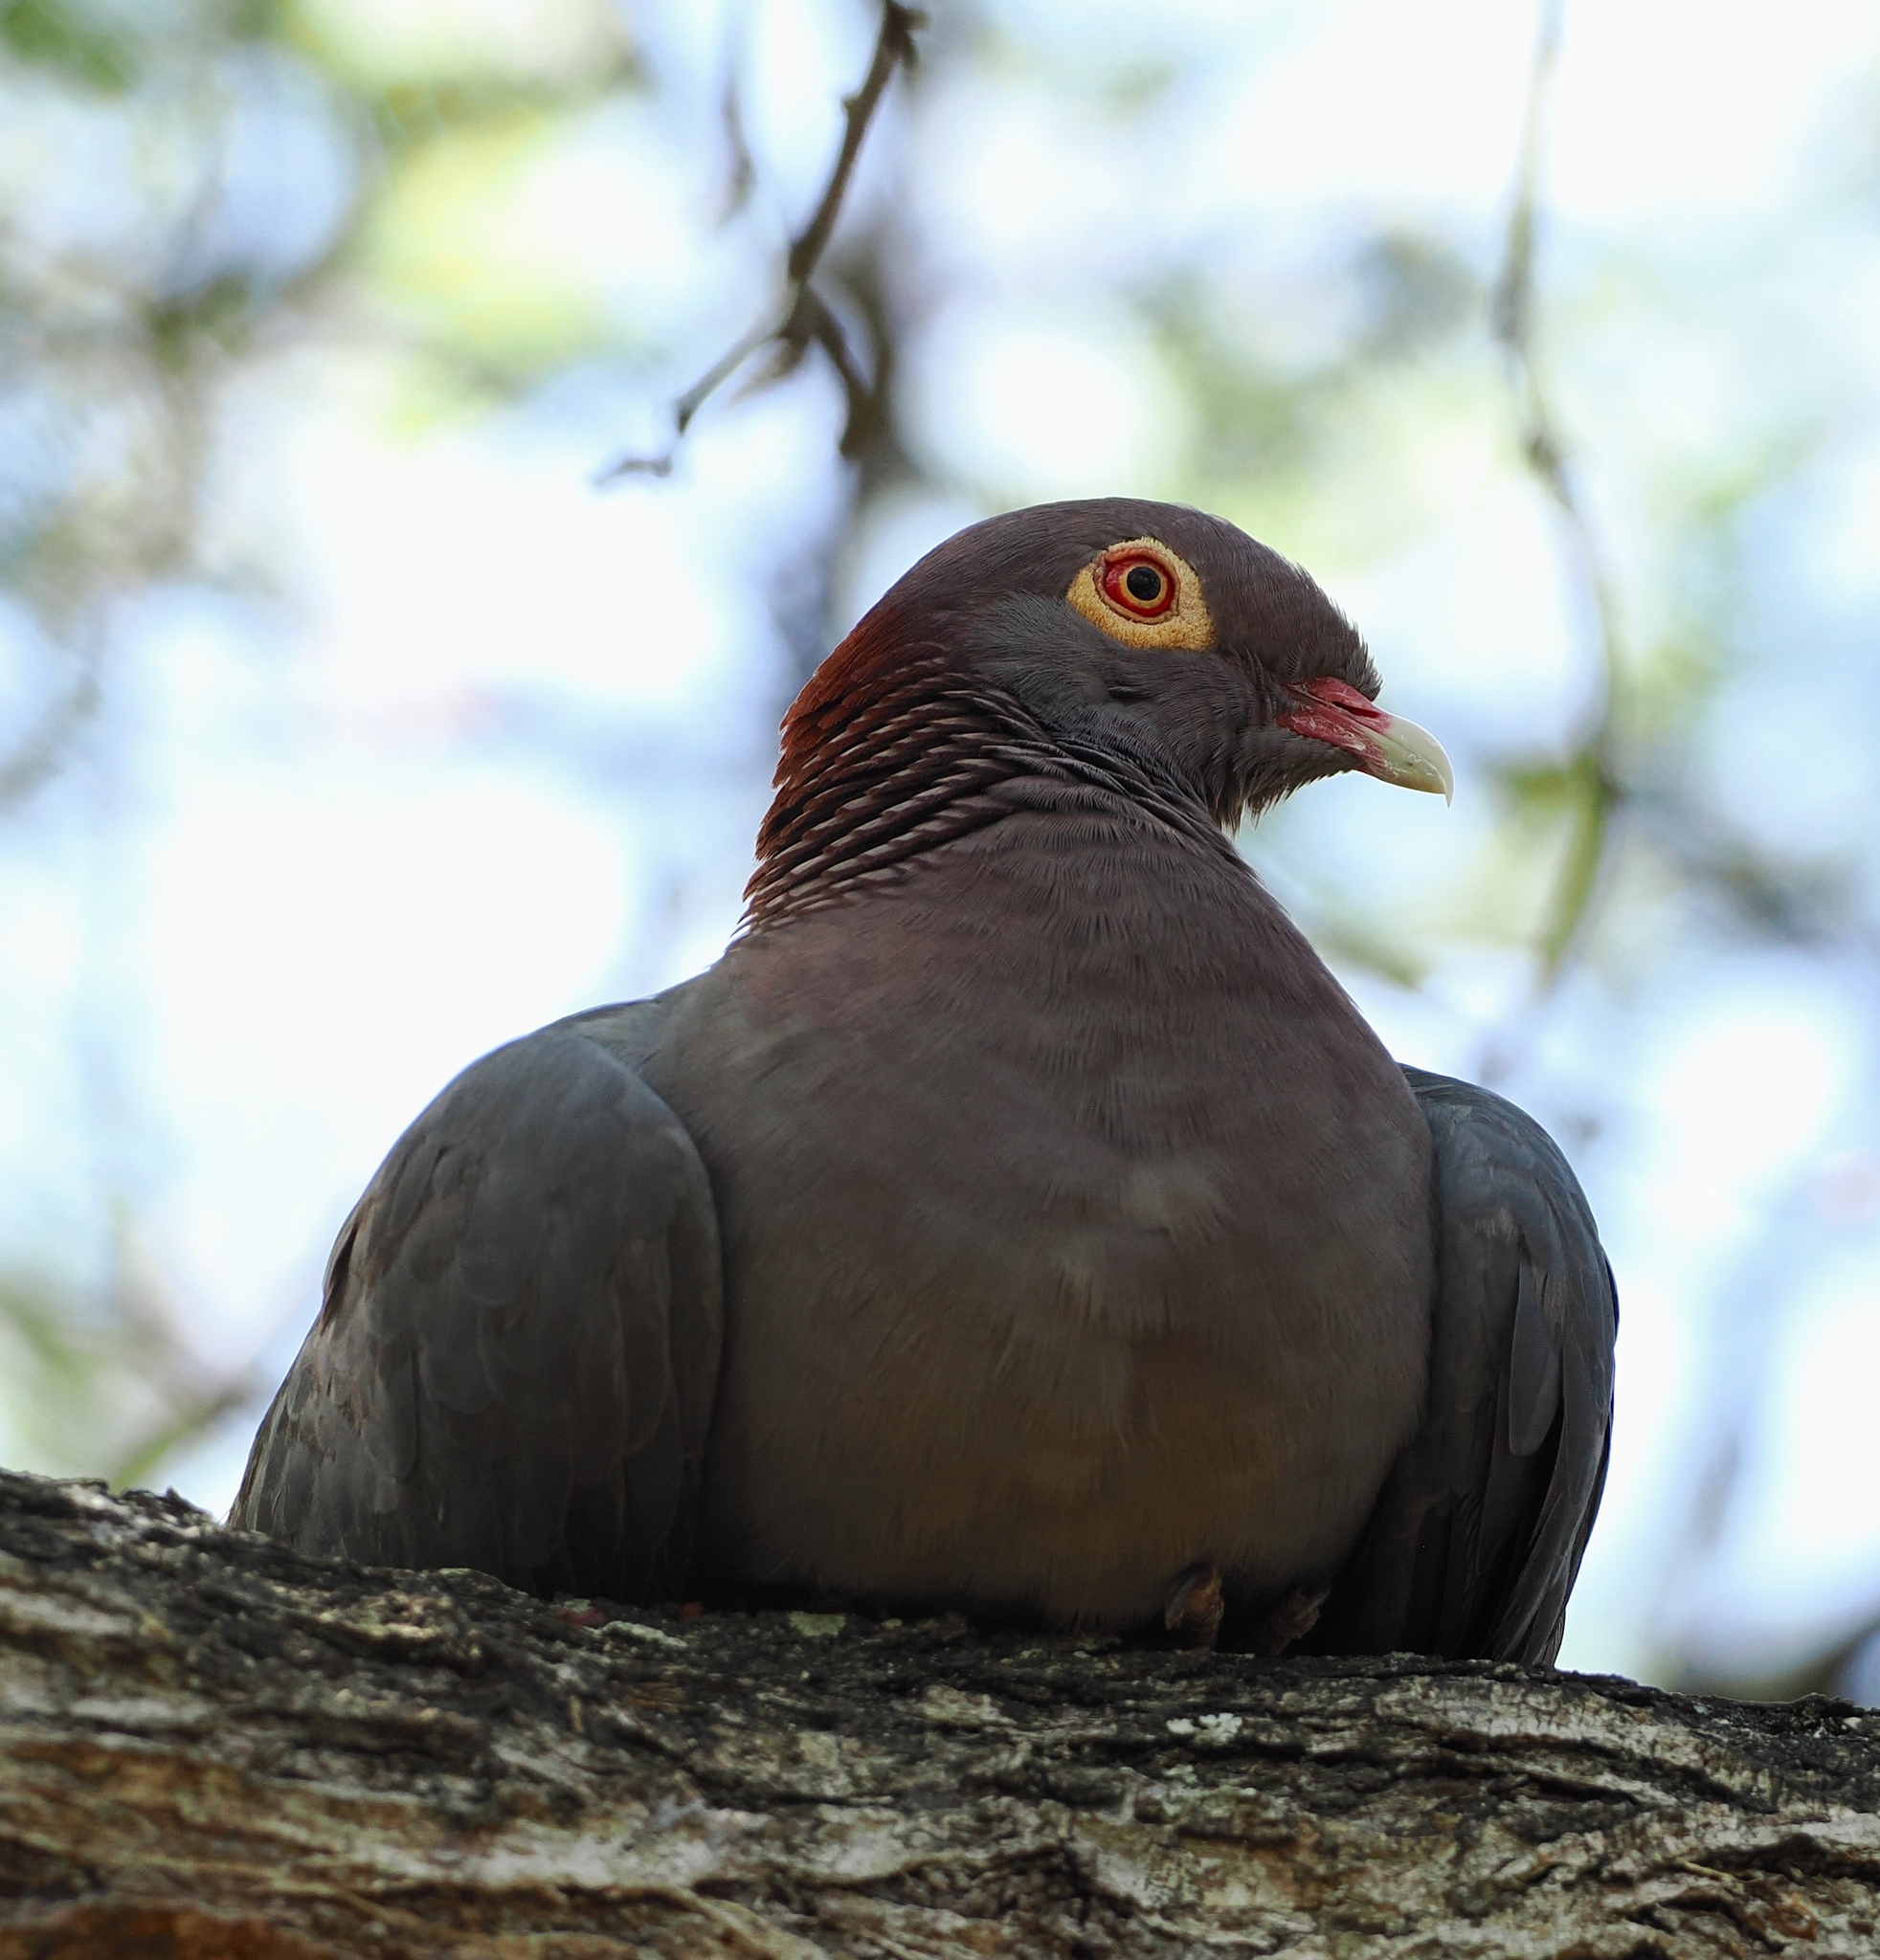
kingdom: Animalia
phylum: Chordata
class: Aves
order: Columbiformes
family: Columbidae
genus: Patagioenas
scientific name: Patagioenas corensis
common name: Bare-eyed pigeon
